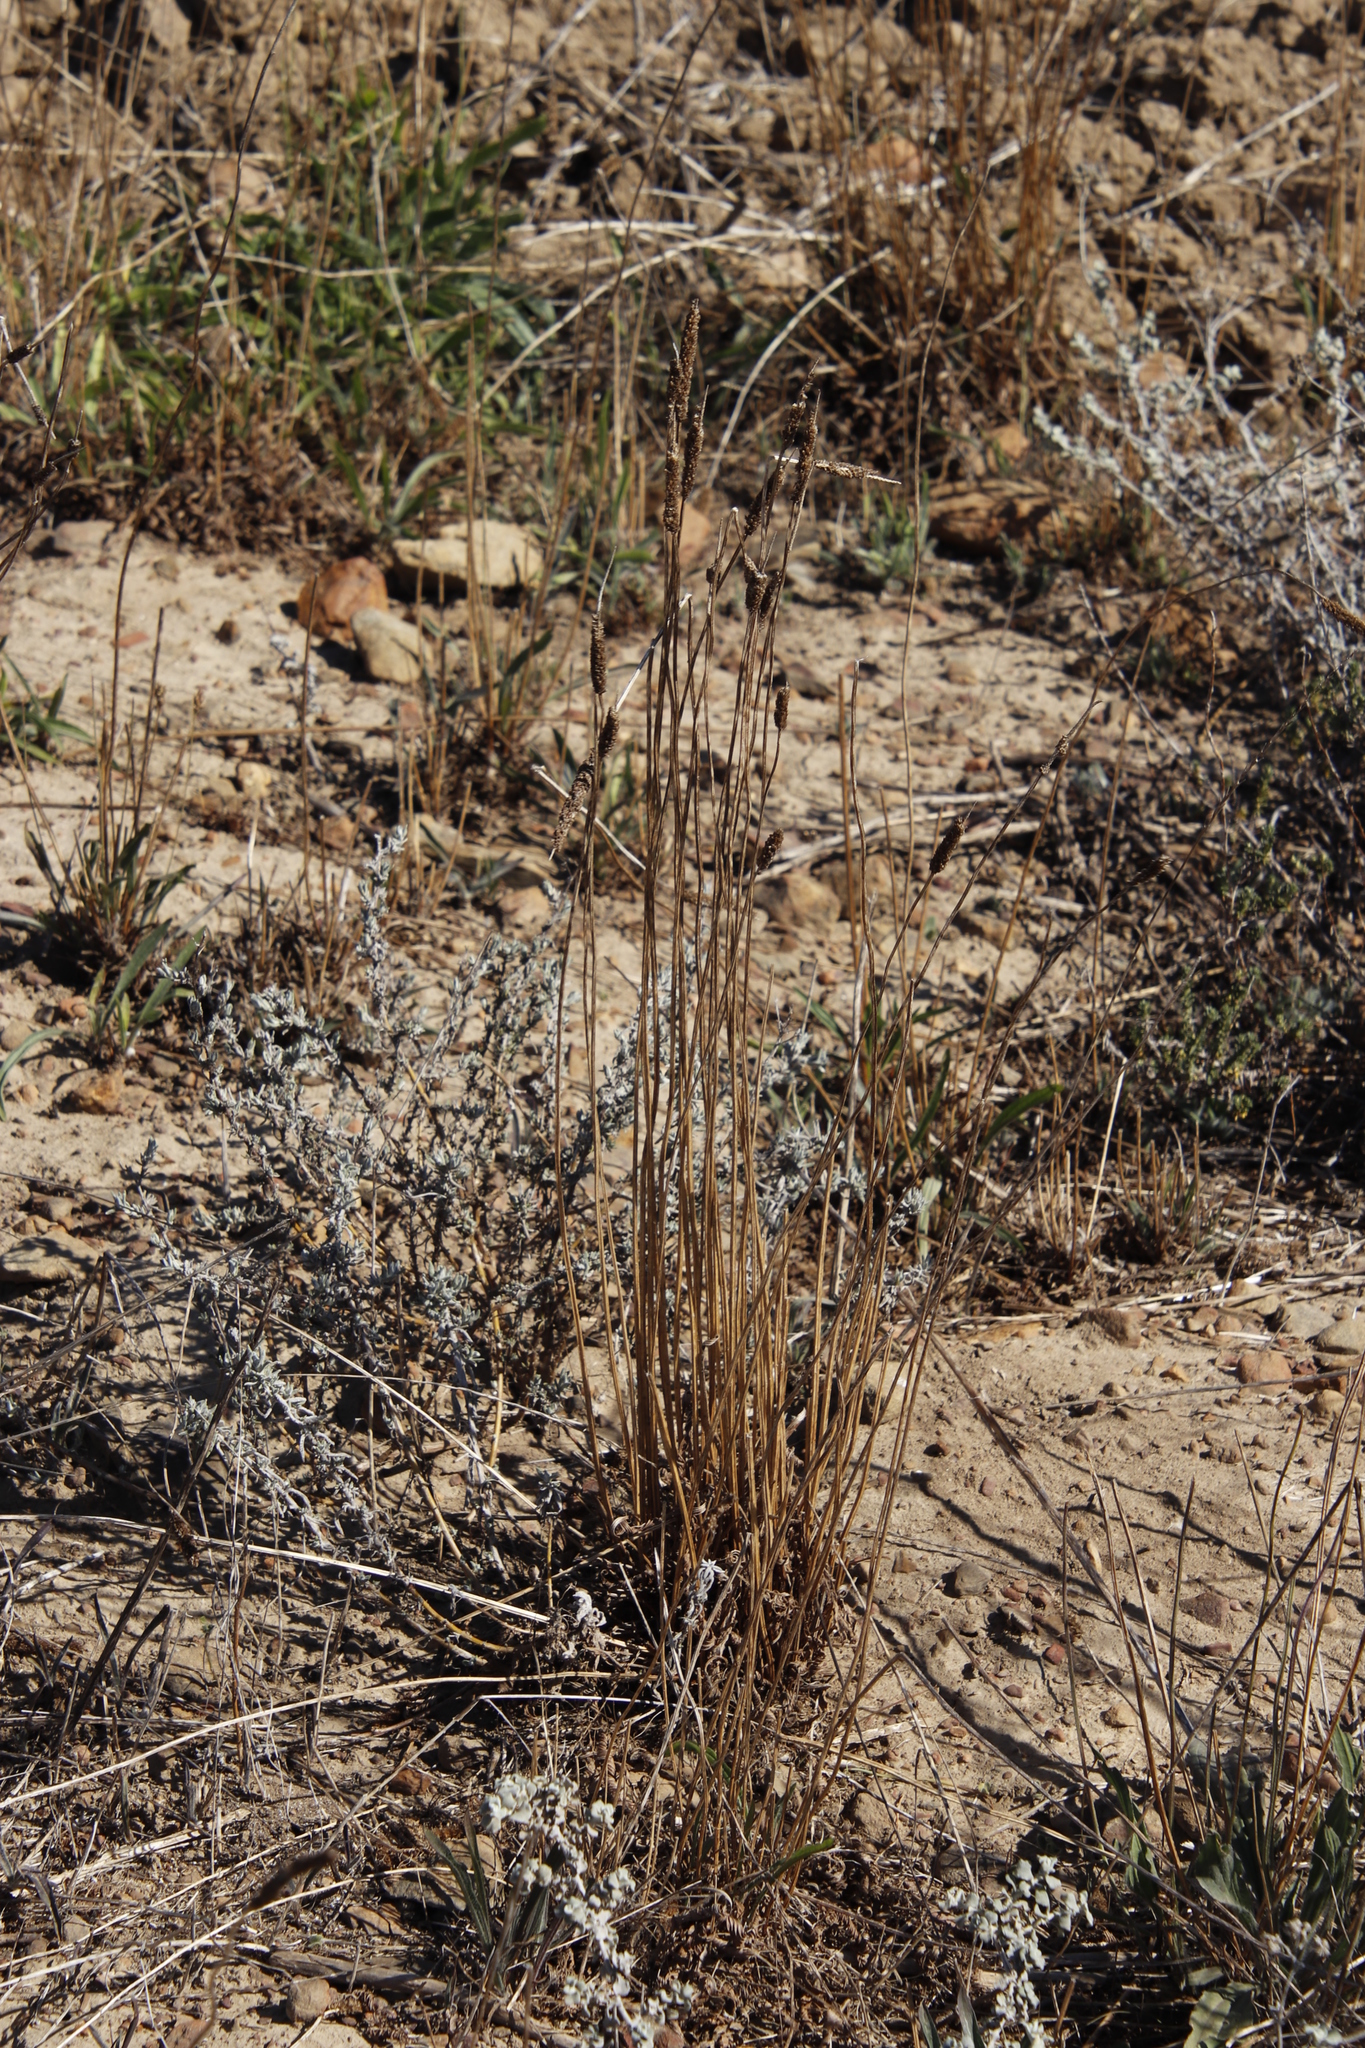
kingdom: Plantae
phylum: Tracheophyta
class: Magnoliopsida
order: Lamiales
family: Plantaginaceae
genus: Plantago
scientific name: Plantago lanceolata
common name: Ribwort plantain
